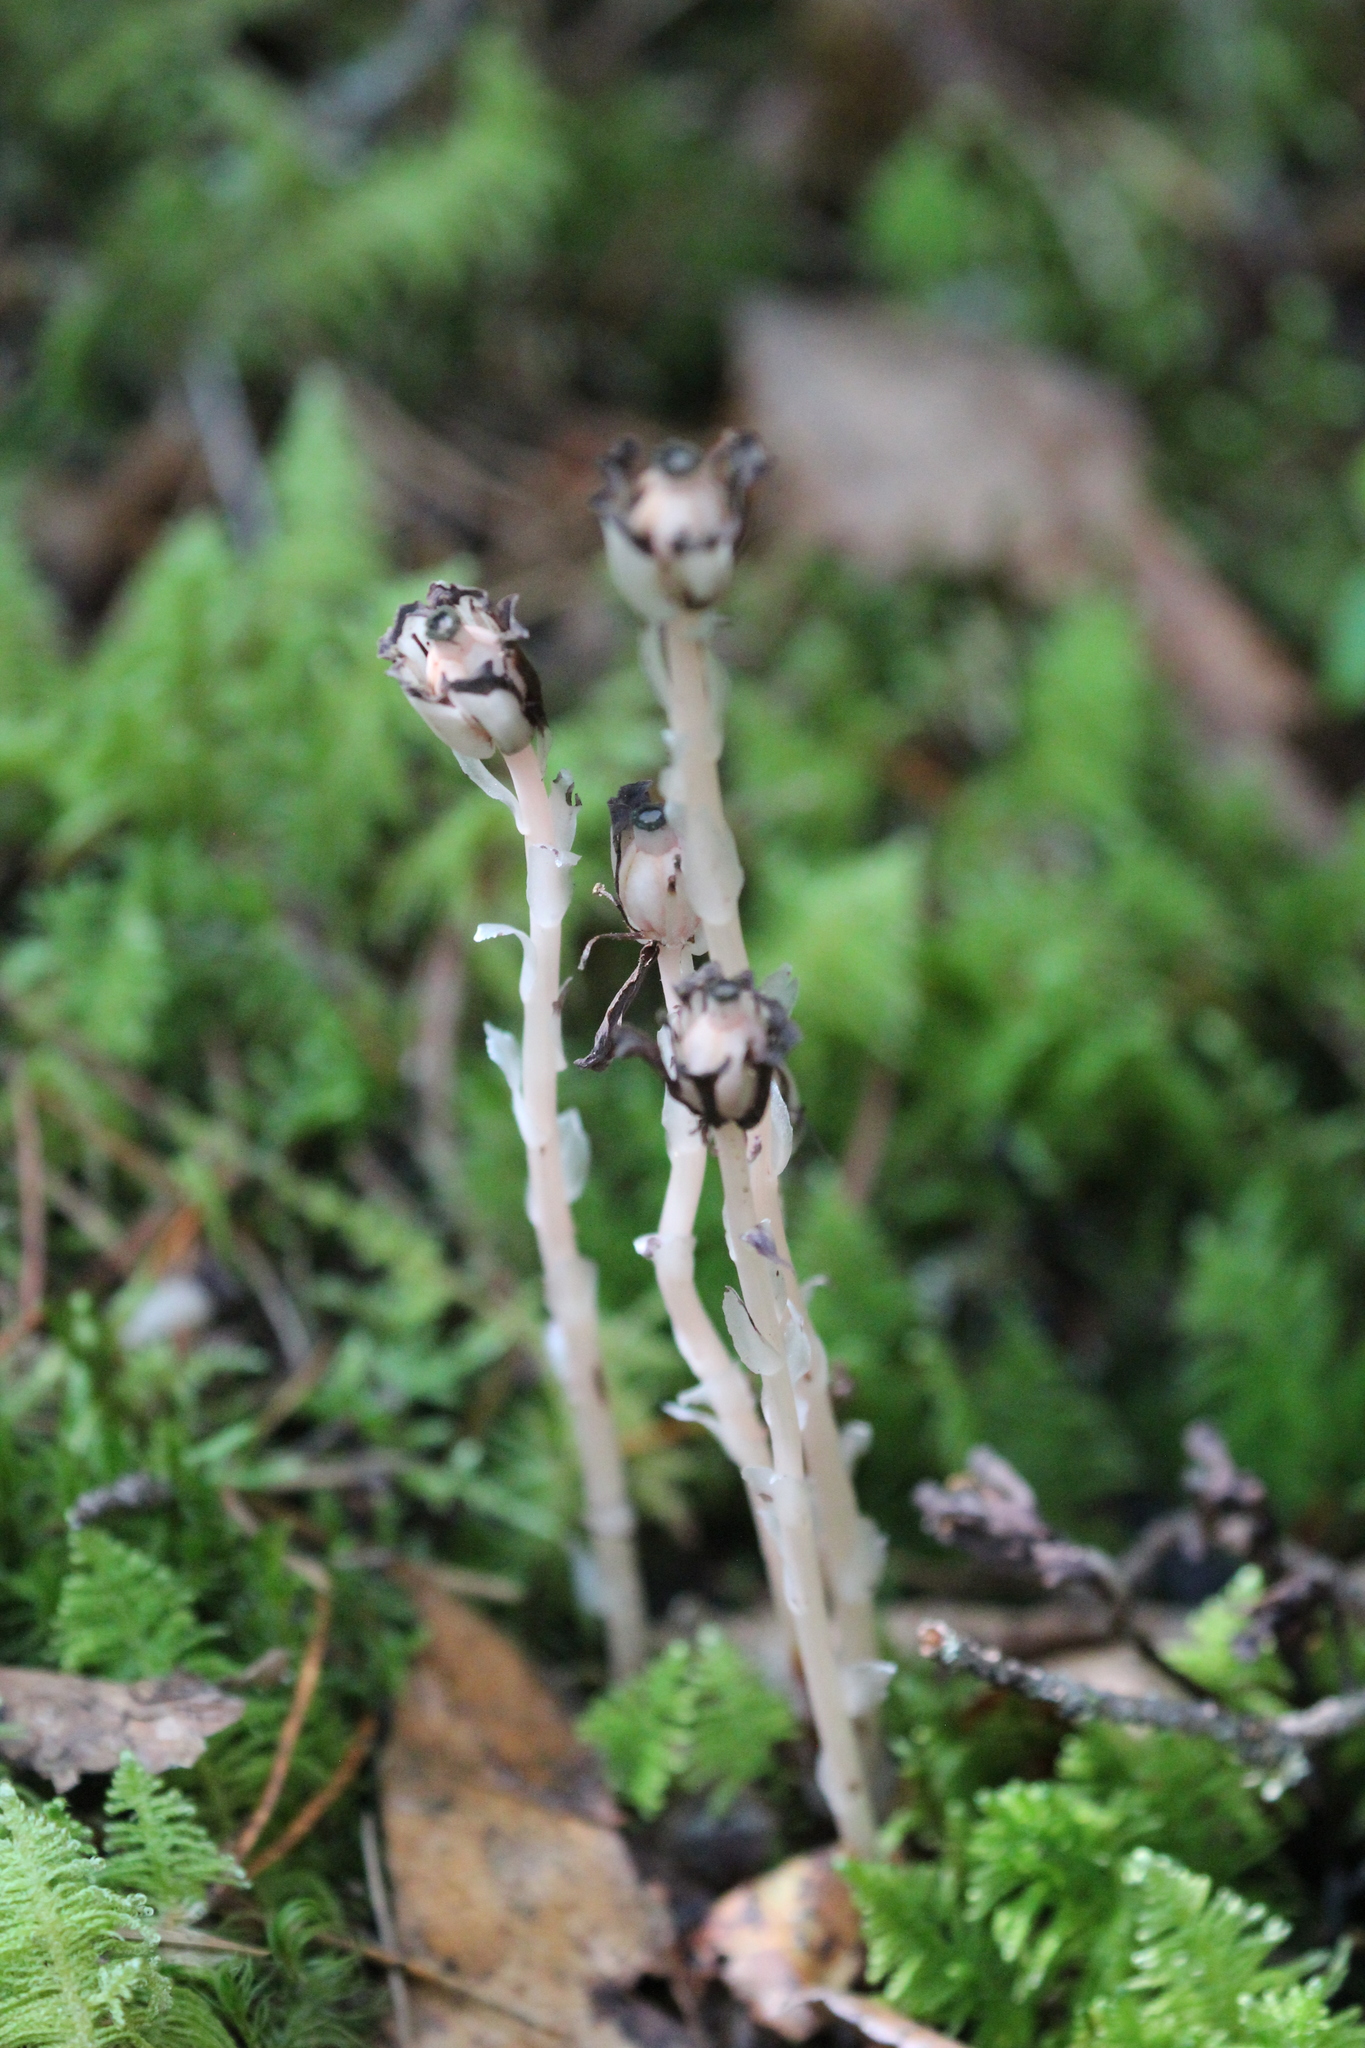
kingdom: Plantae
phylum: Tracheophyta
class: Magnoliopsida
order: Ericales
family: Ericaceae
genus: Monotropa
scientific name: Monotropa uniflora
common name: Convulsion root
